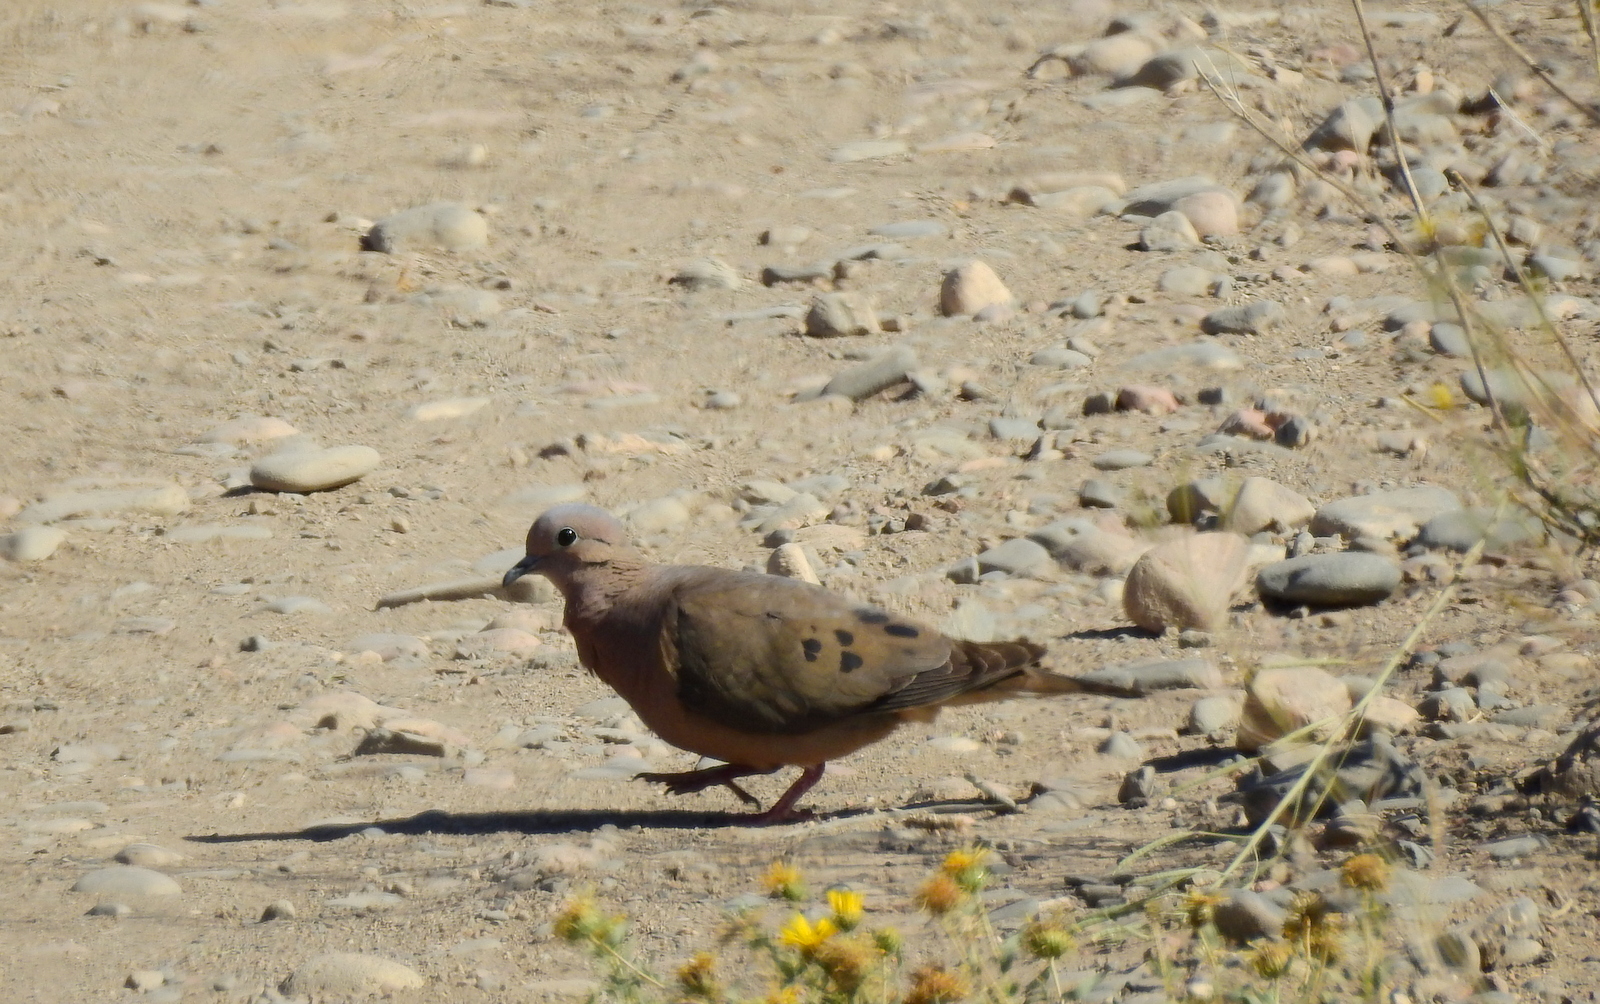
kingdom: Animalia
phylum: Chordata
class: Aves
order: Columbiformes
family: Columbidae
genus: Zenaida
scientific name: Zenaida auriculata
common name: Eared dove
